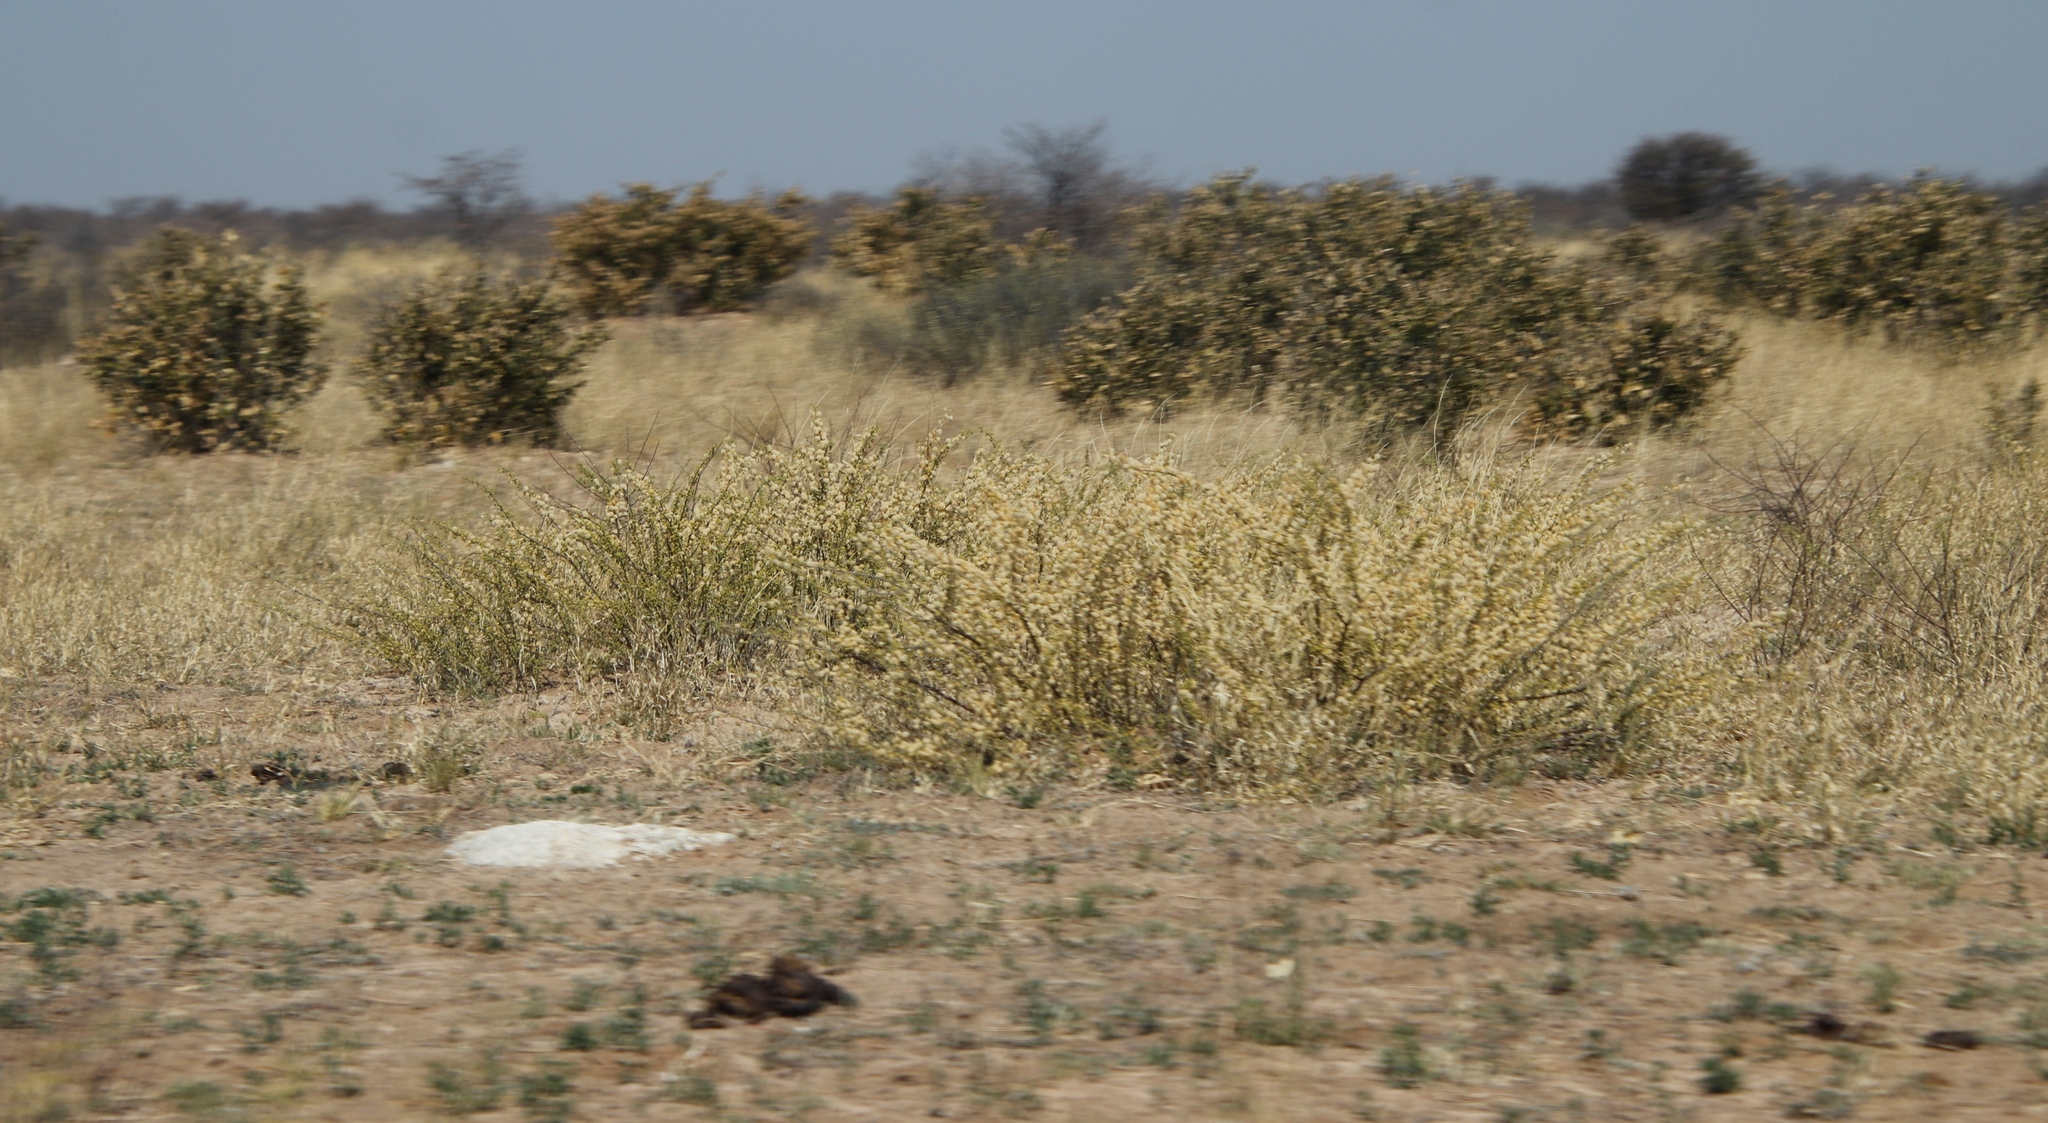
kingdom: Plantae
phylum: Tracheophyta
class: Magnoliopsida
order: Fabales
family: Fabaceae
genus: Vachellia
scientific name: Vachellia hebeclada
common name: Candle thorn
